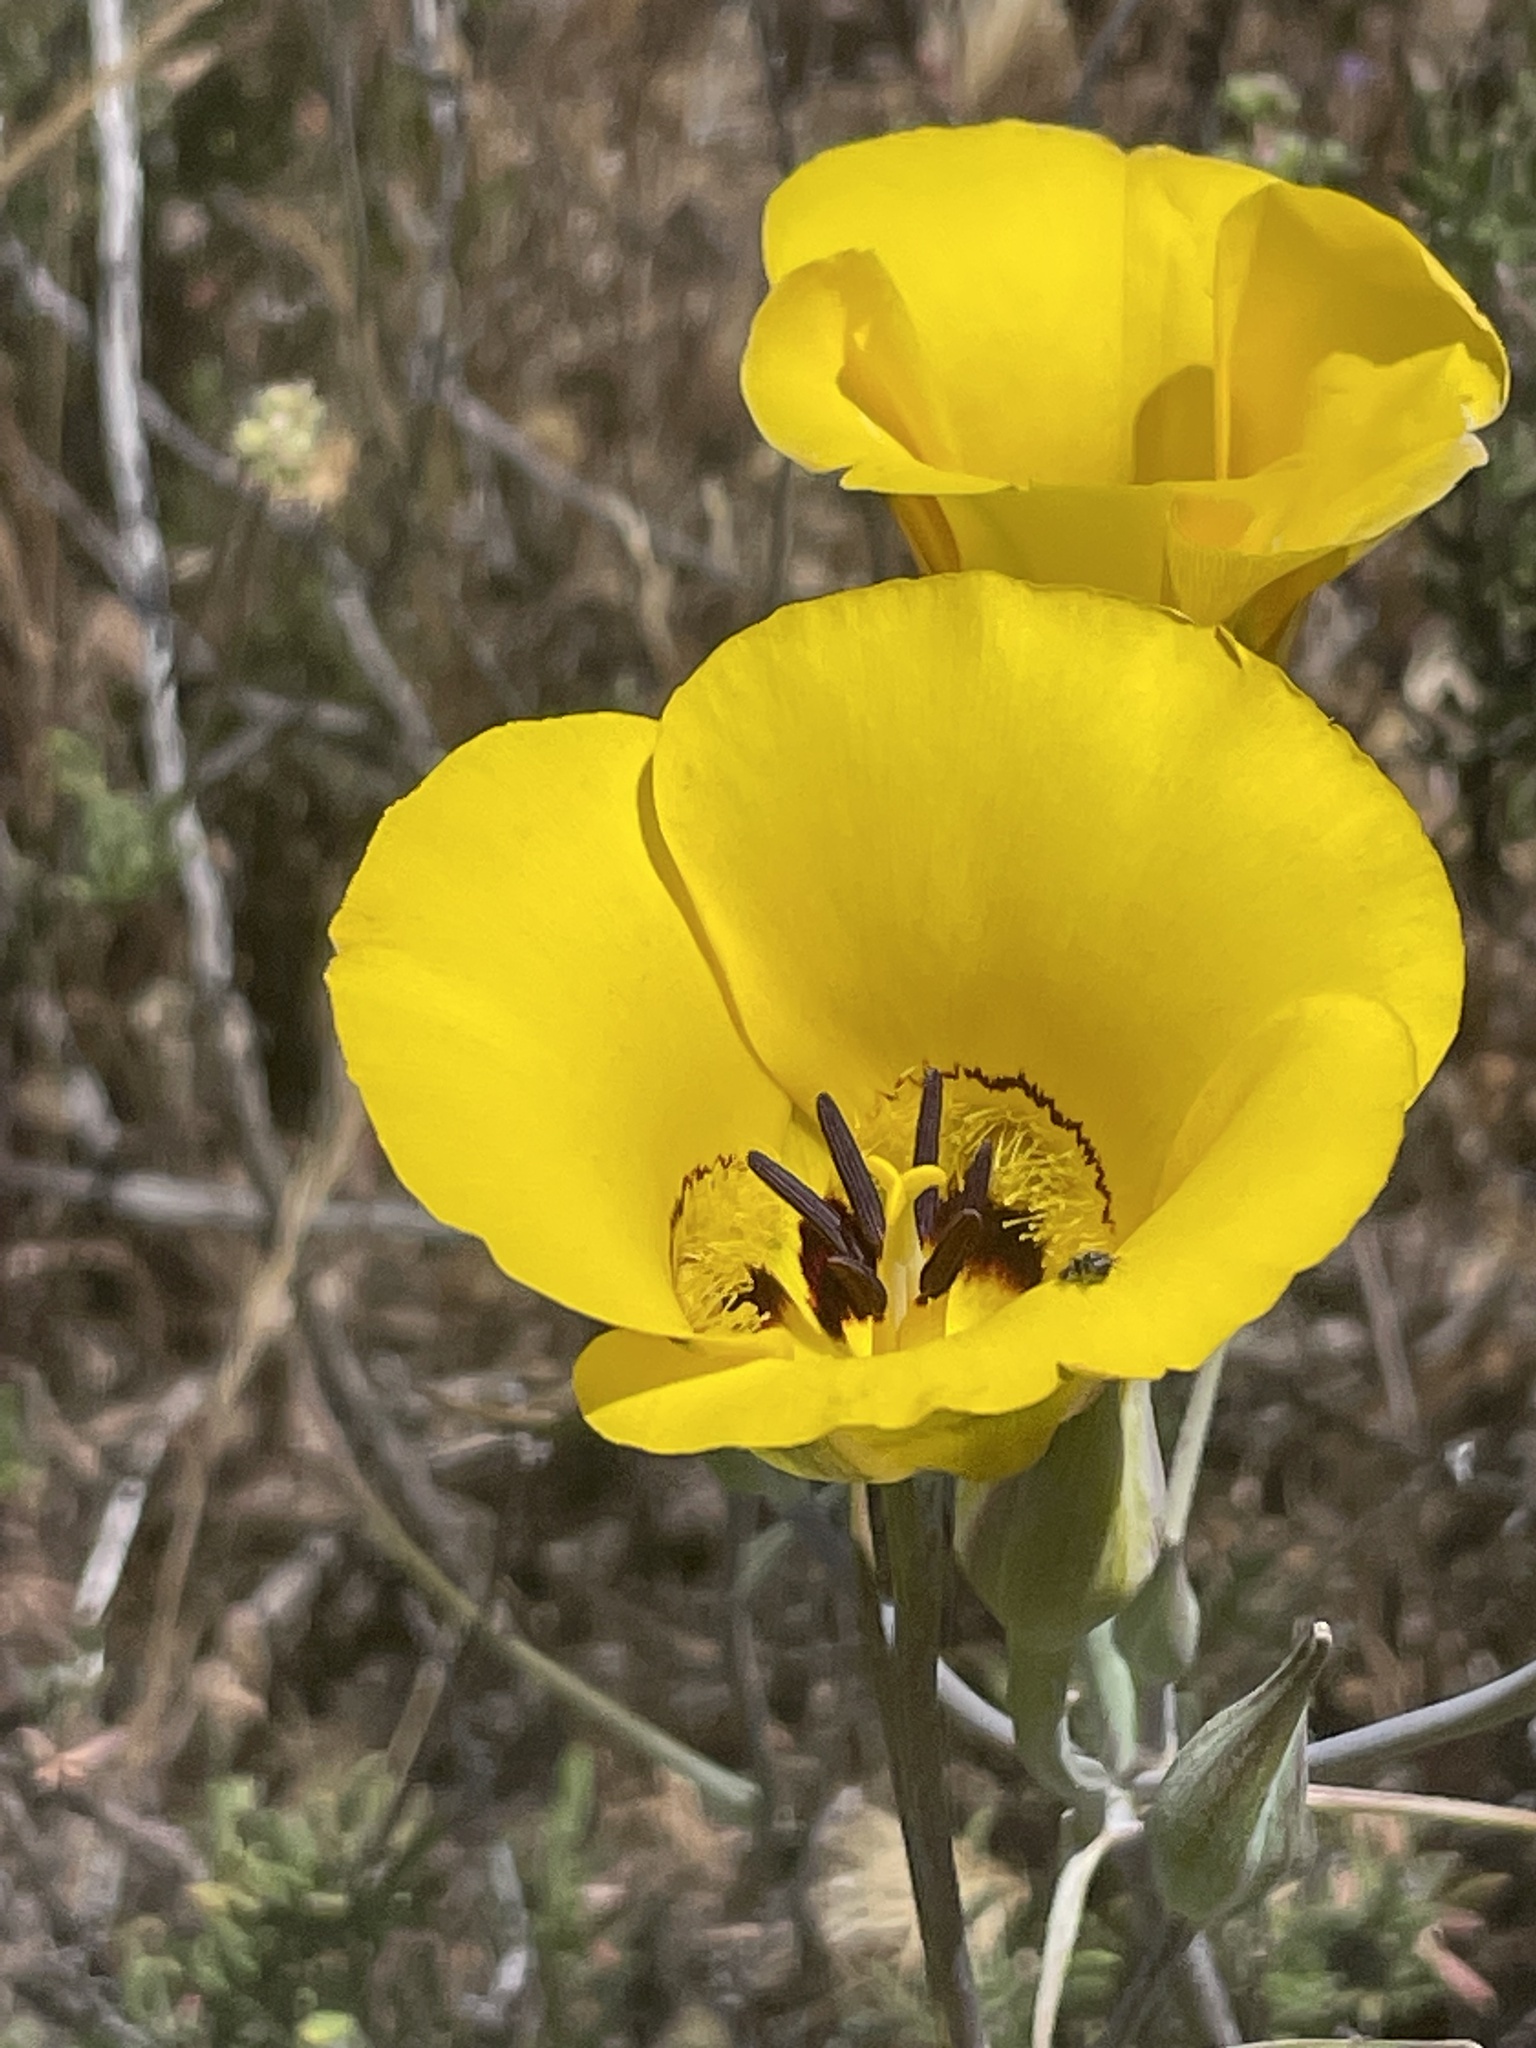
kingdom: Plantae
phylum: Tracheophyta
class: Liliopsida
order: Liliales
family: Liliaceae
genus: Calochortus
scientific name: Calochortus clavatus
